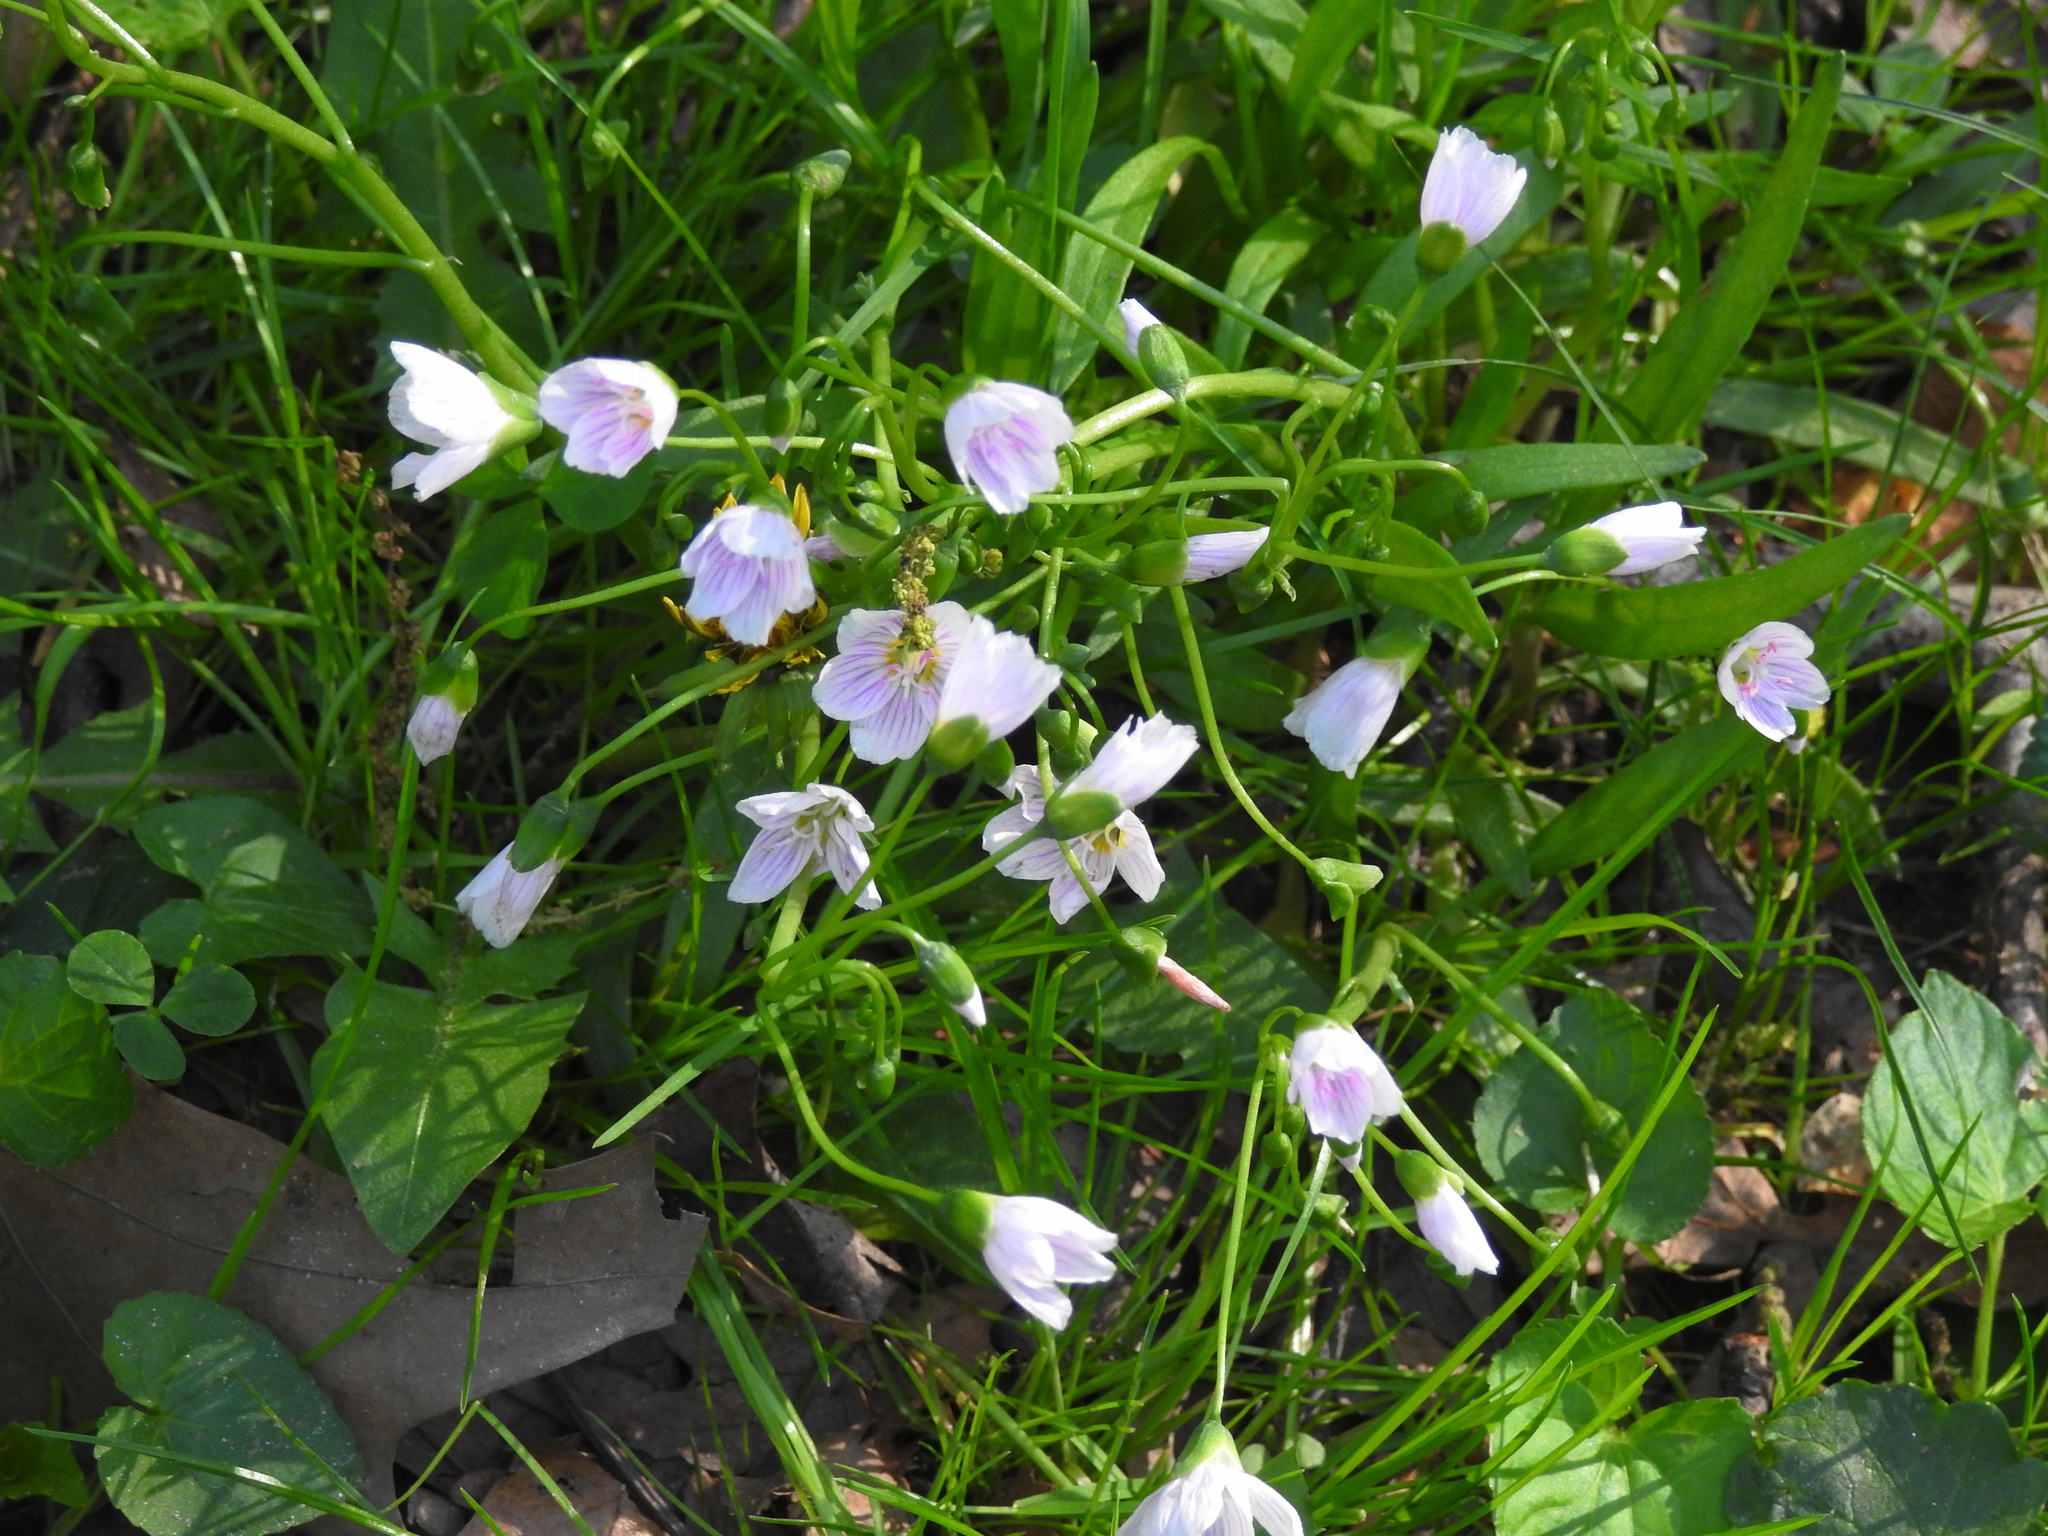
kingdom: Plantae
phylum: Tracheophyta
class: Magnoliopsida
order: Caryophyllales
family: Montiaceae
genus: Claytonia
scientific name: Claytonia virginica
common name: Virginia springbeauty
